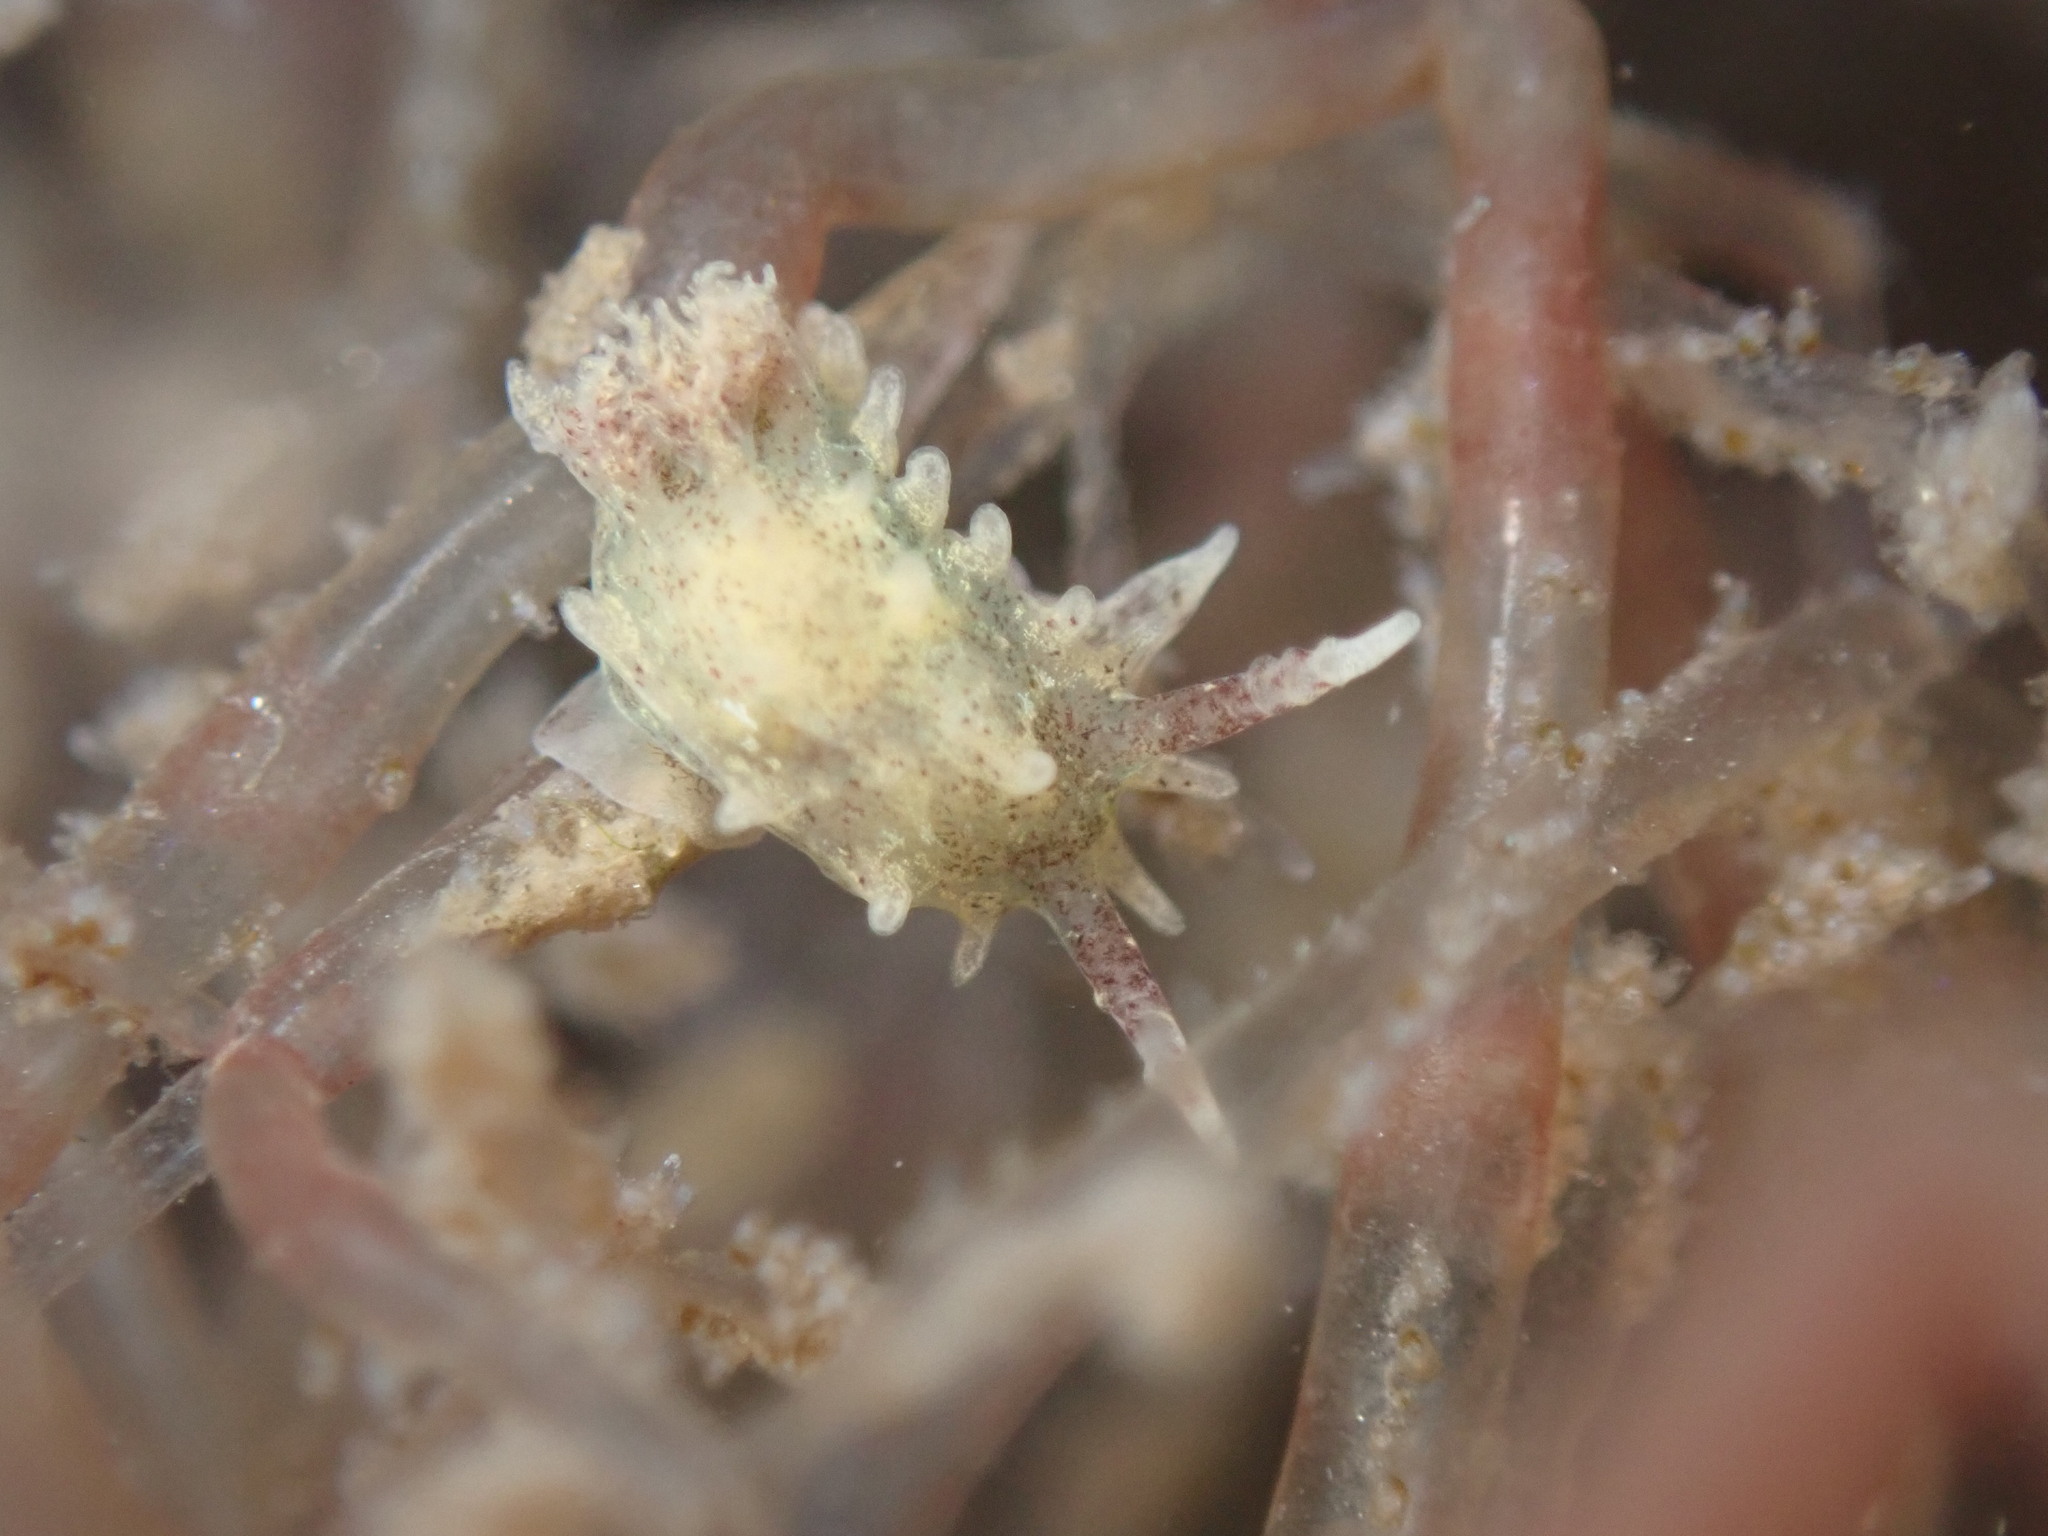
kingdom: Animalia
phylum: Mollusca
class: Gastropoda
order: Nudibranchia
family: Goniodorididae
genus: Okenia
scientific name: Okenia
